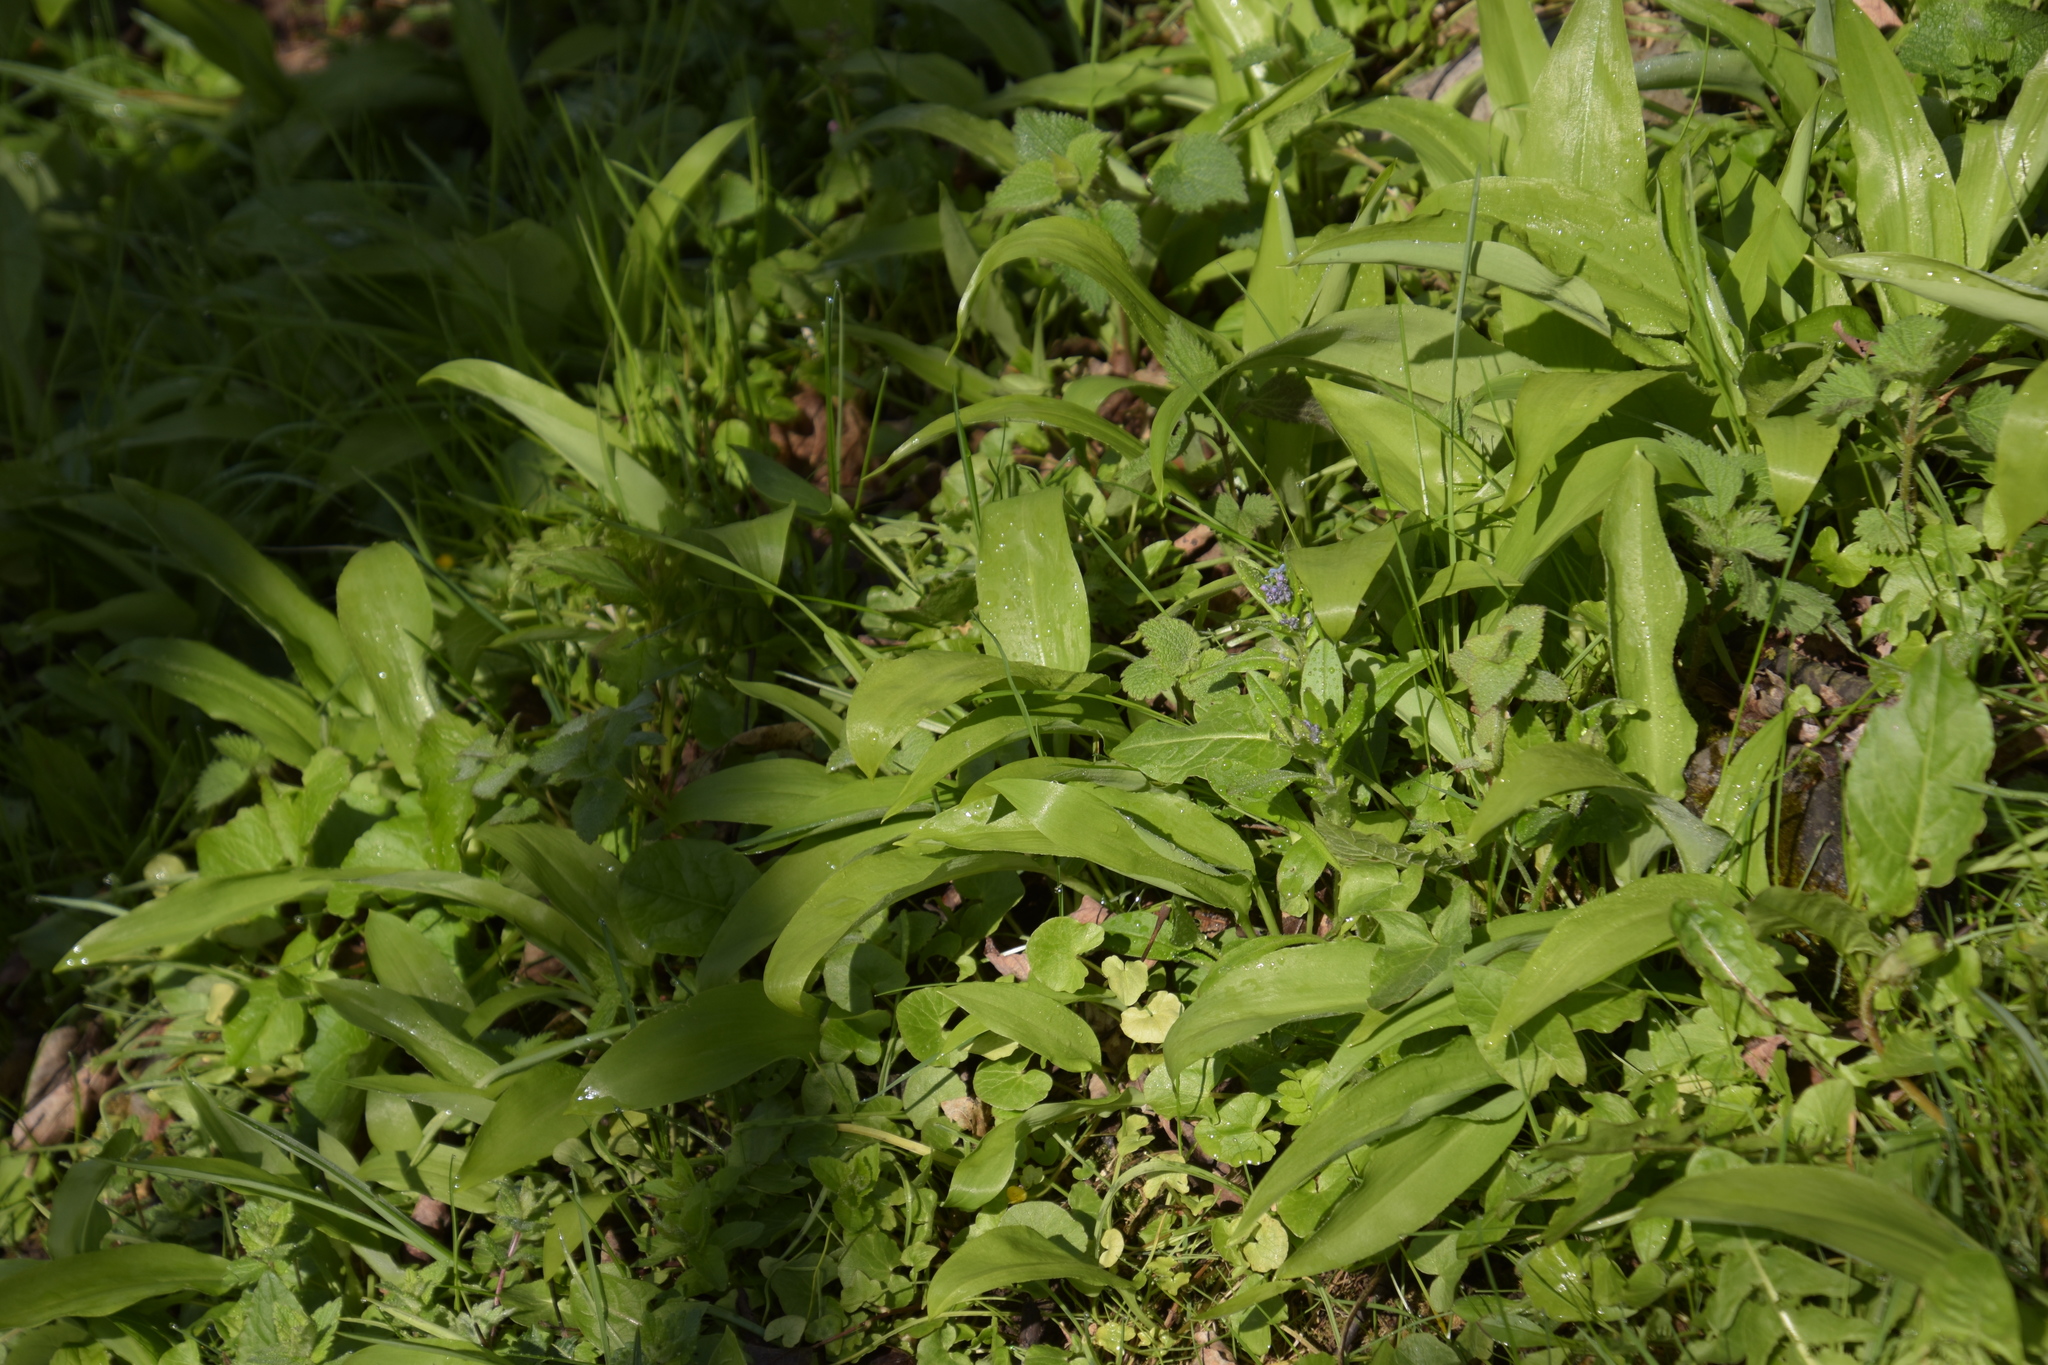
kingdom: Plantae
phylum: Tracheophyta
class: Liliopsida
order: Asparagales
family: Amaryllidaceae
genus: Allium
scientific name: Allium ursinum
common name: Ramsons
